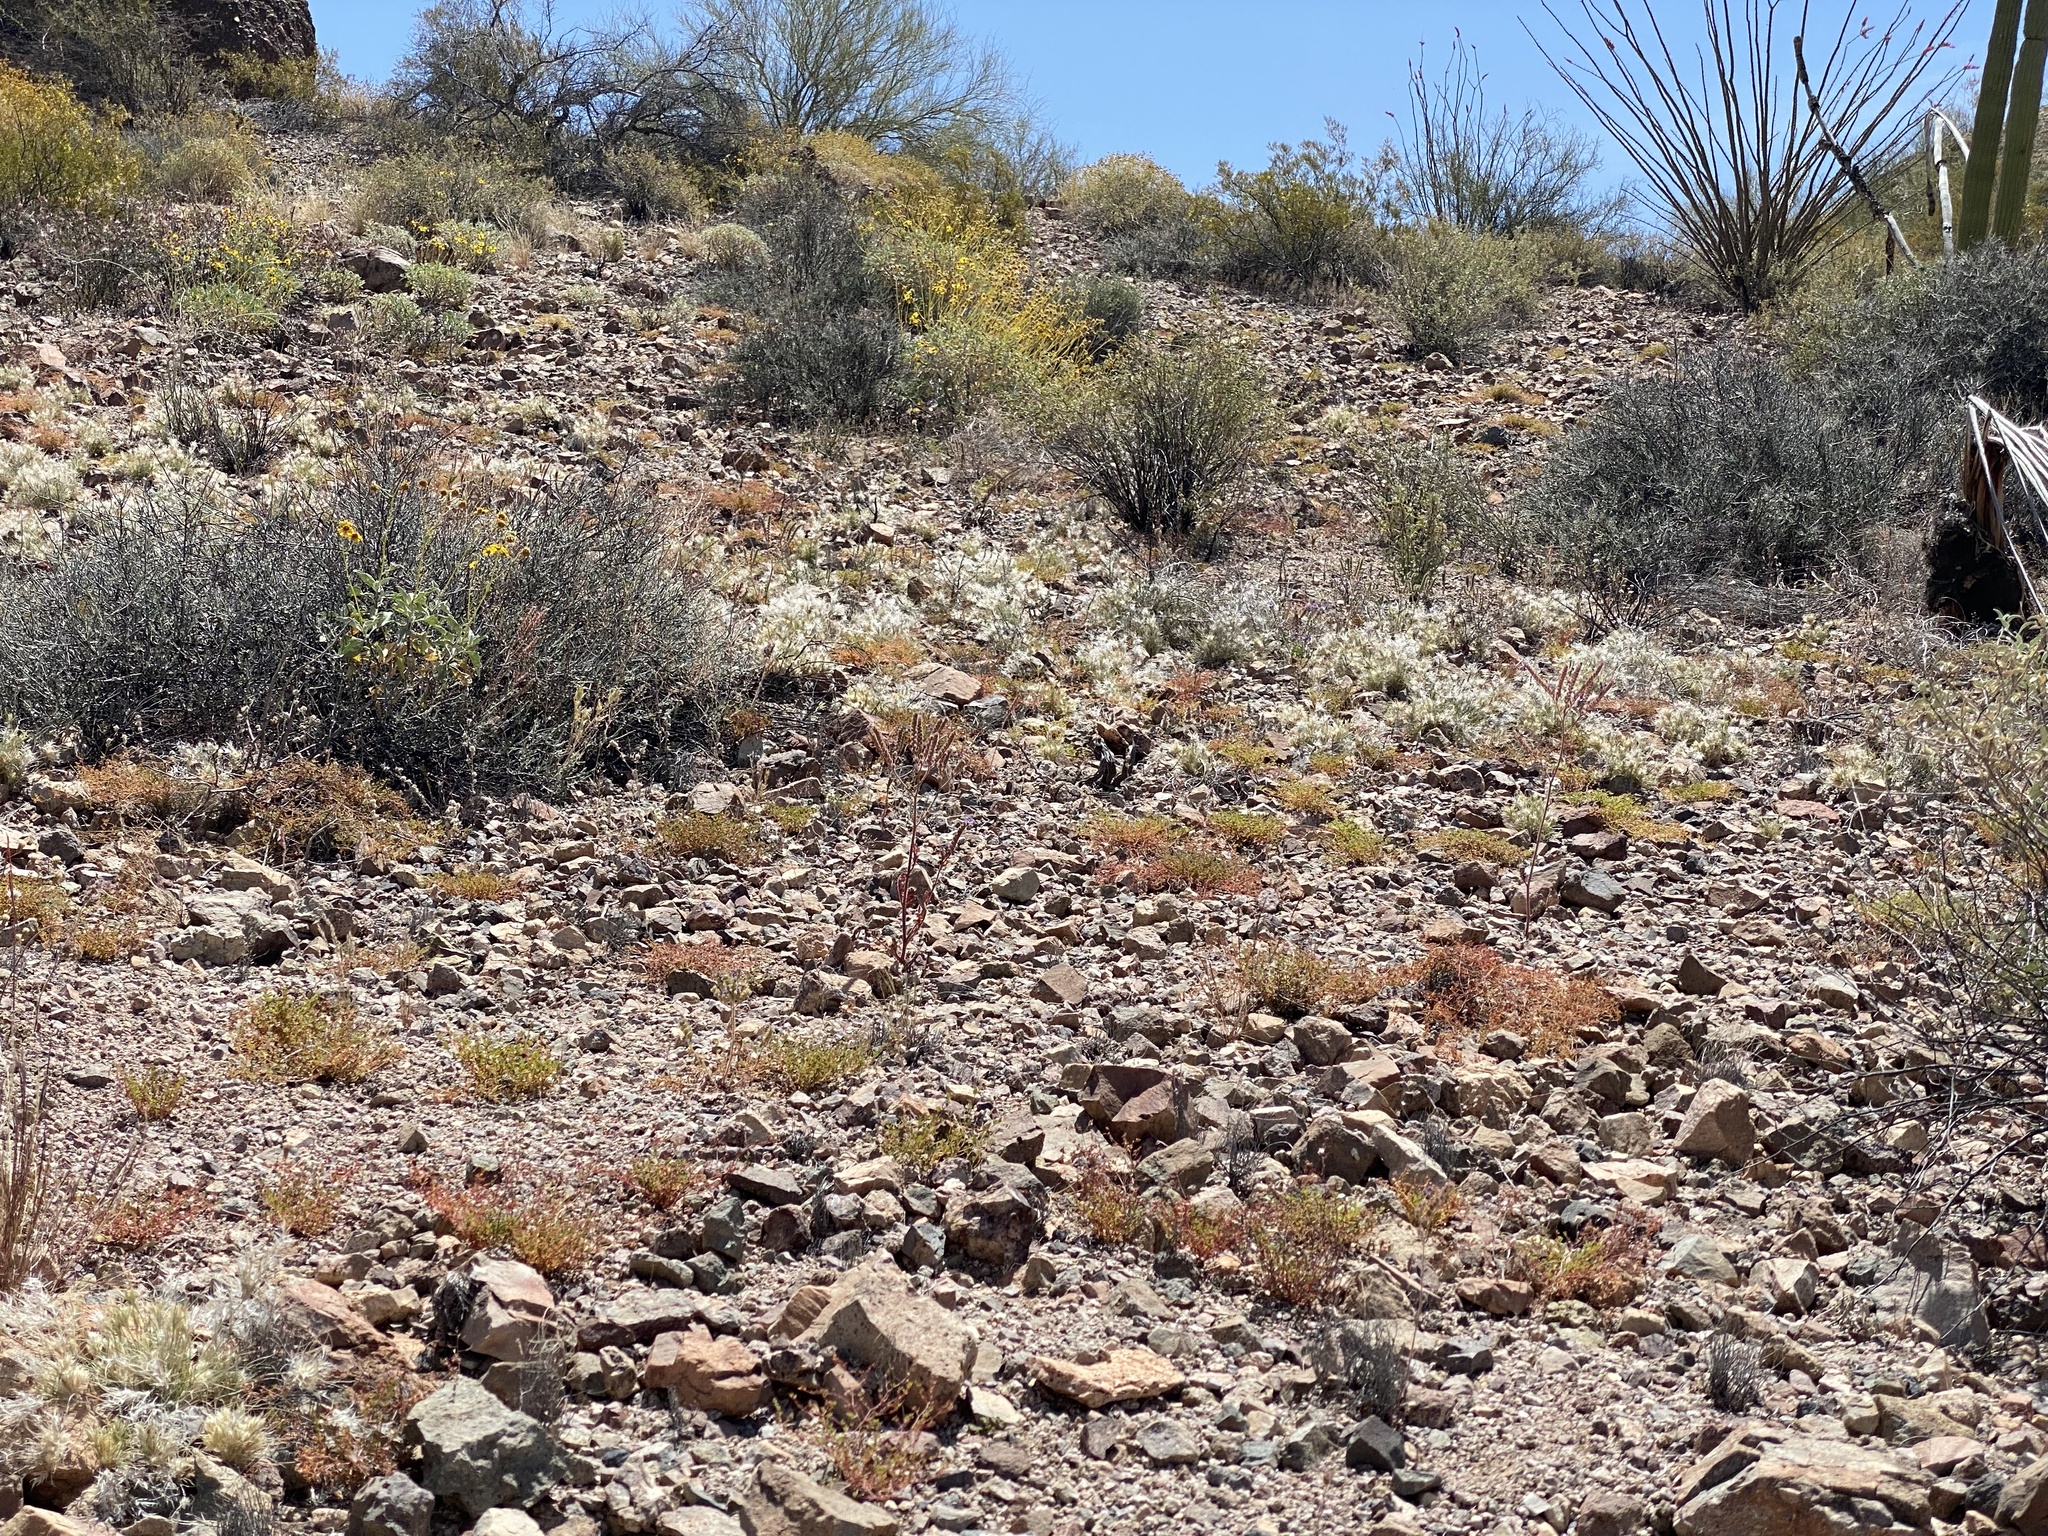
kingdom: Plantae
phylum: Tracheophyta
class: Liliopsida
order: Poales
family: Poaceae
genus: Dasyochloa
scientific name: Dasyochloa pulchella
